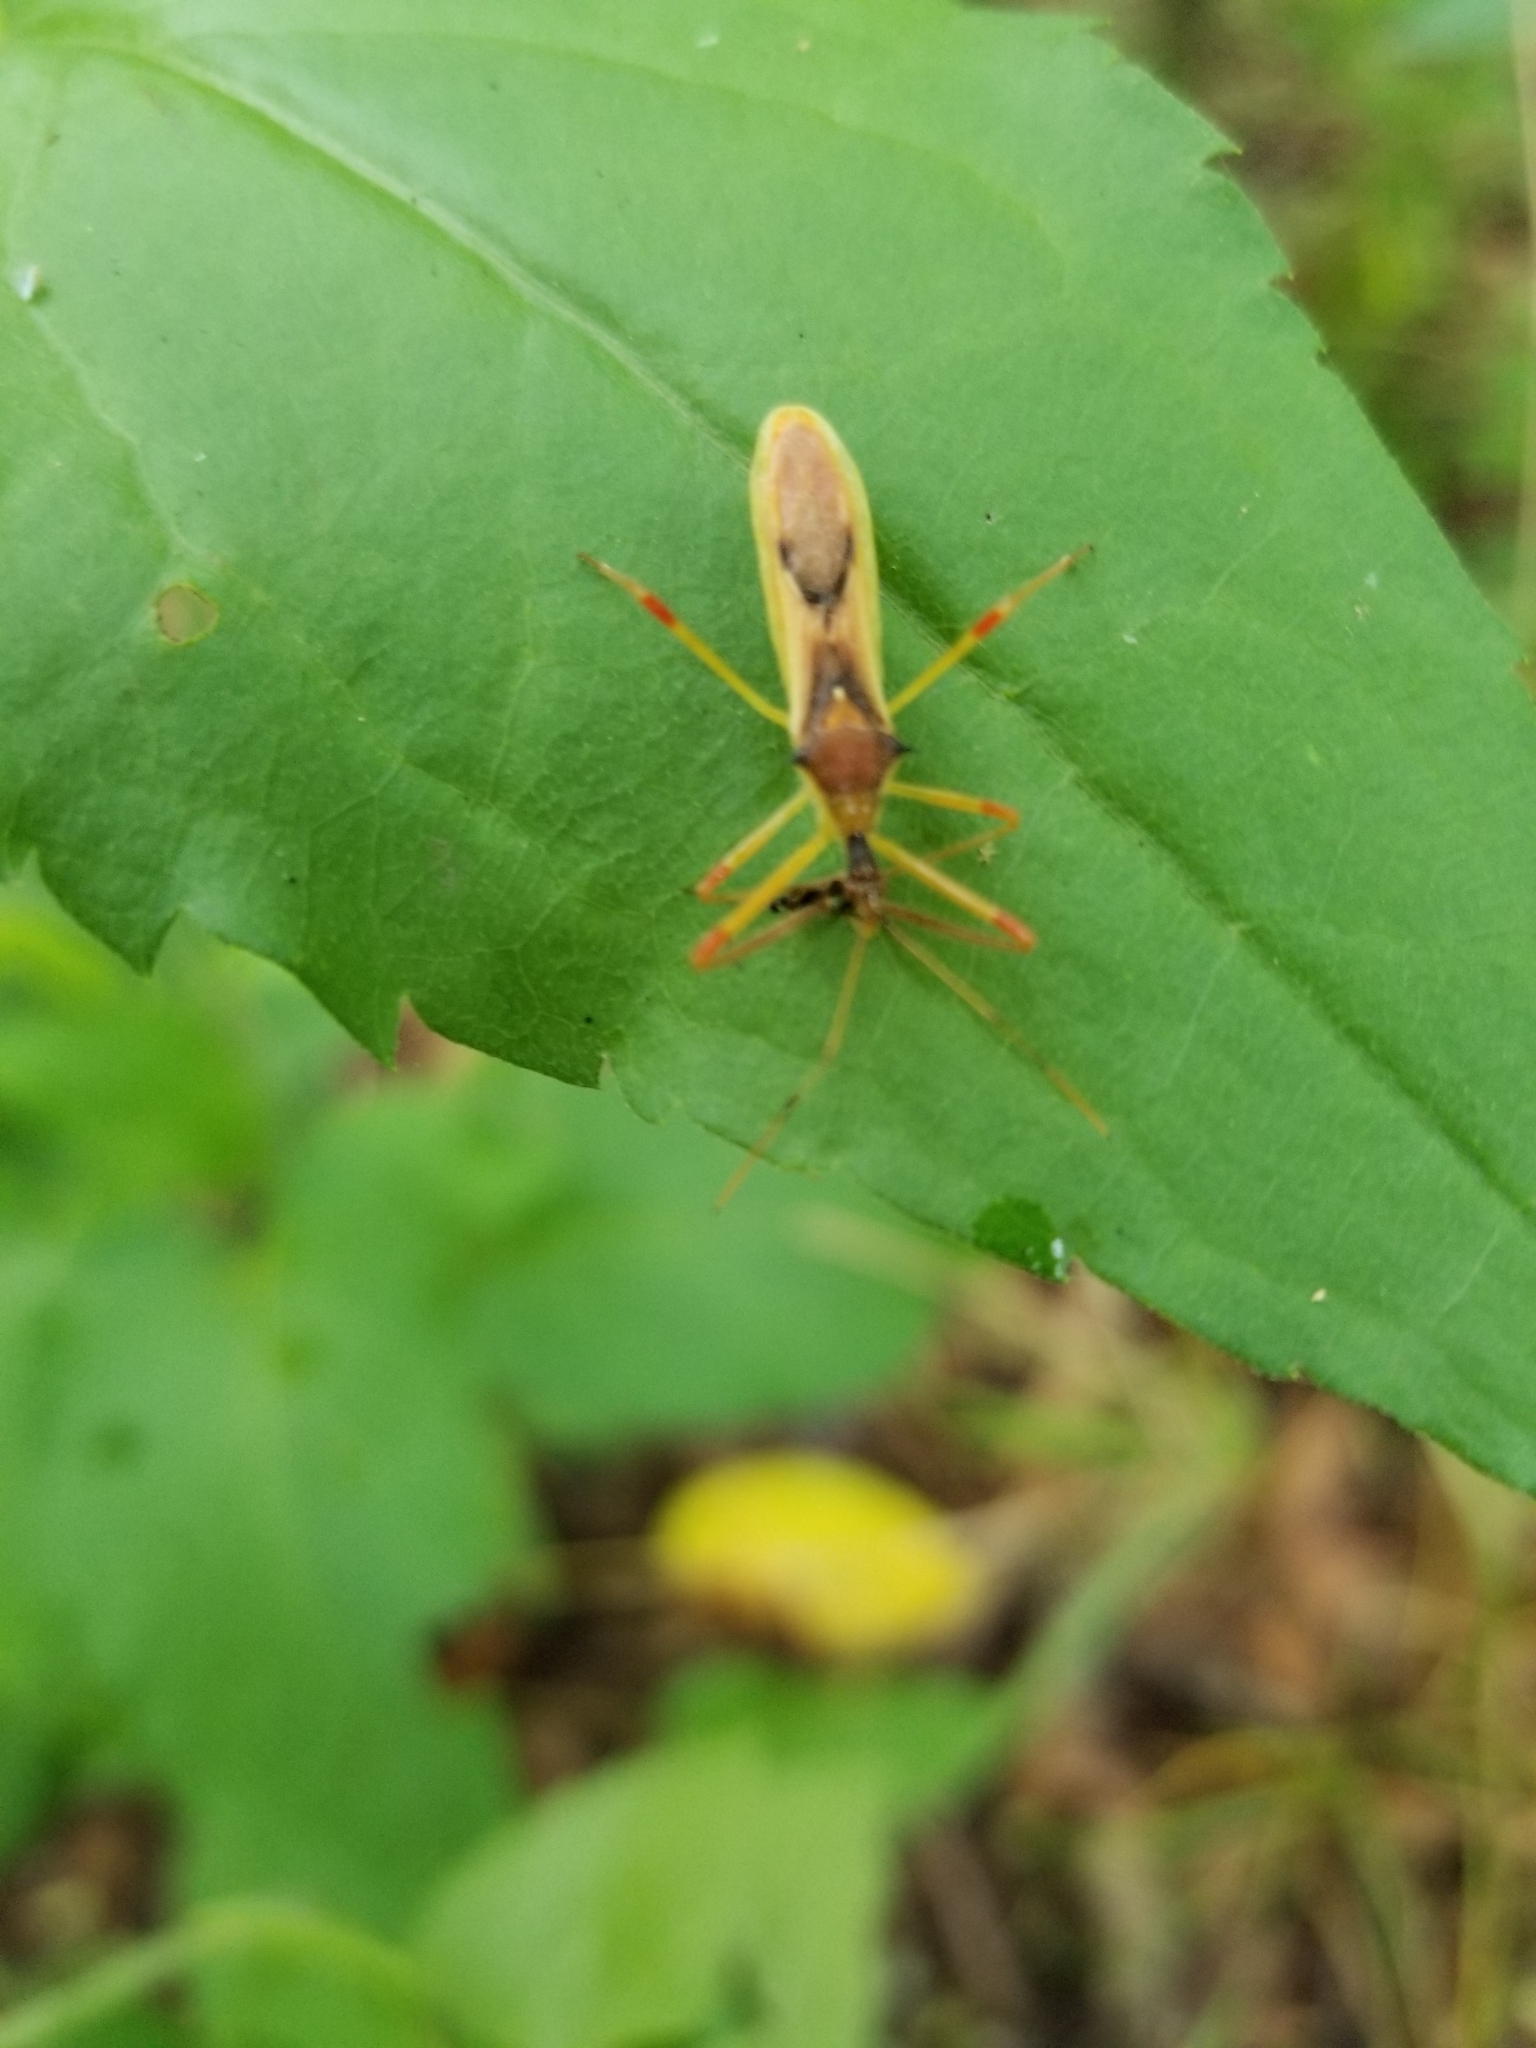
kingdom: Animalia
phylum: Arthropoda
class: Insecta
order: Hemiptera
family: Reduviidae
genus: Zelus
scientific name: Zelus luridus
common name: Pale green assassin bug
